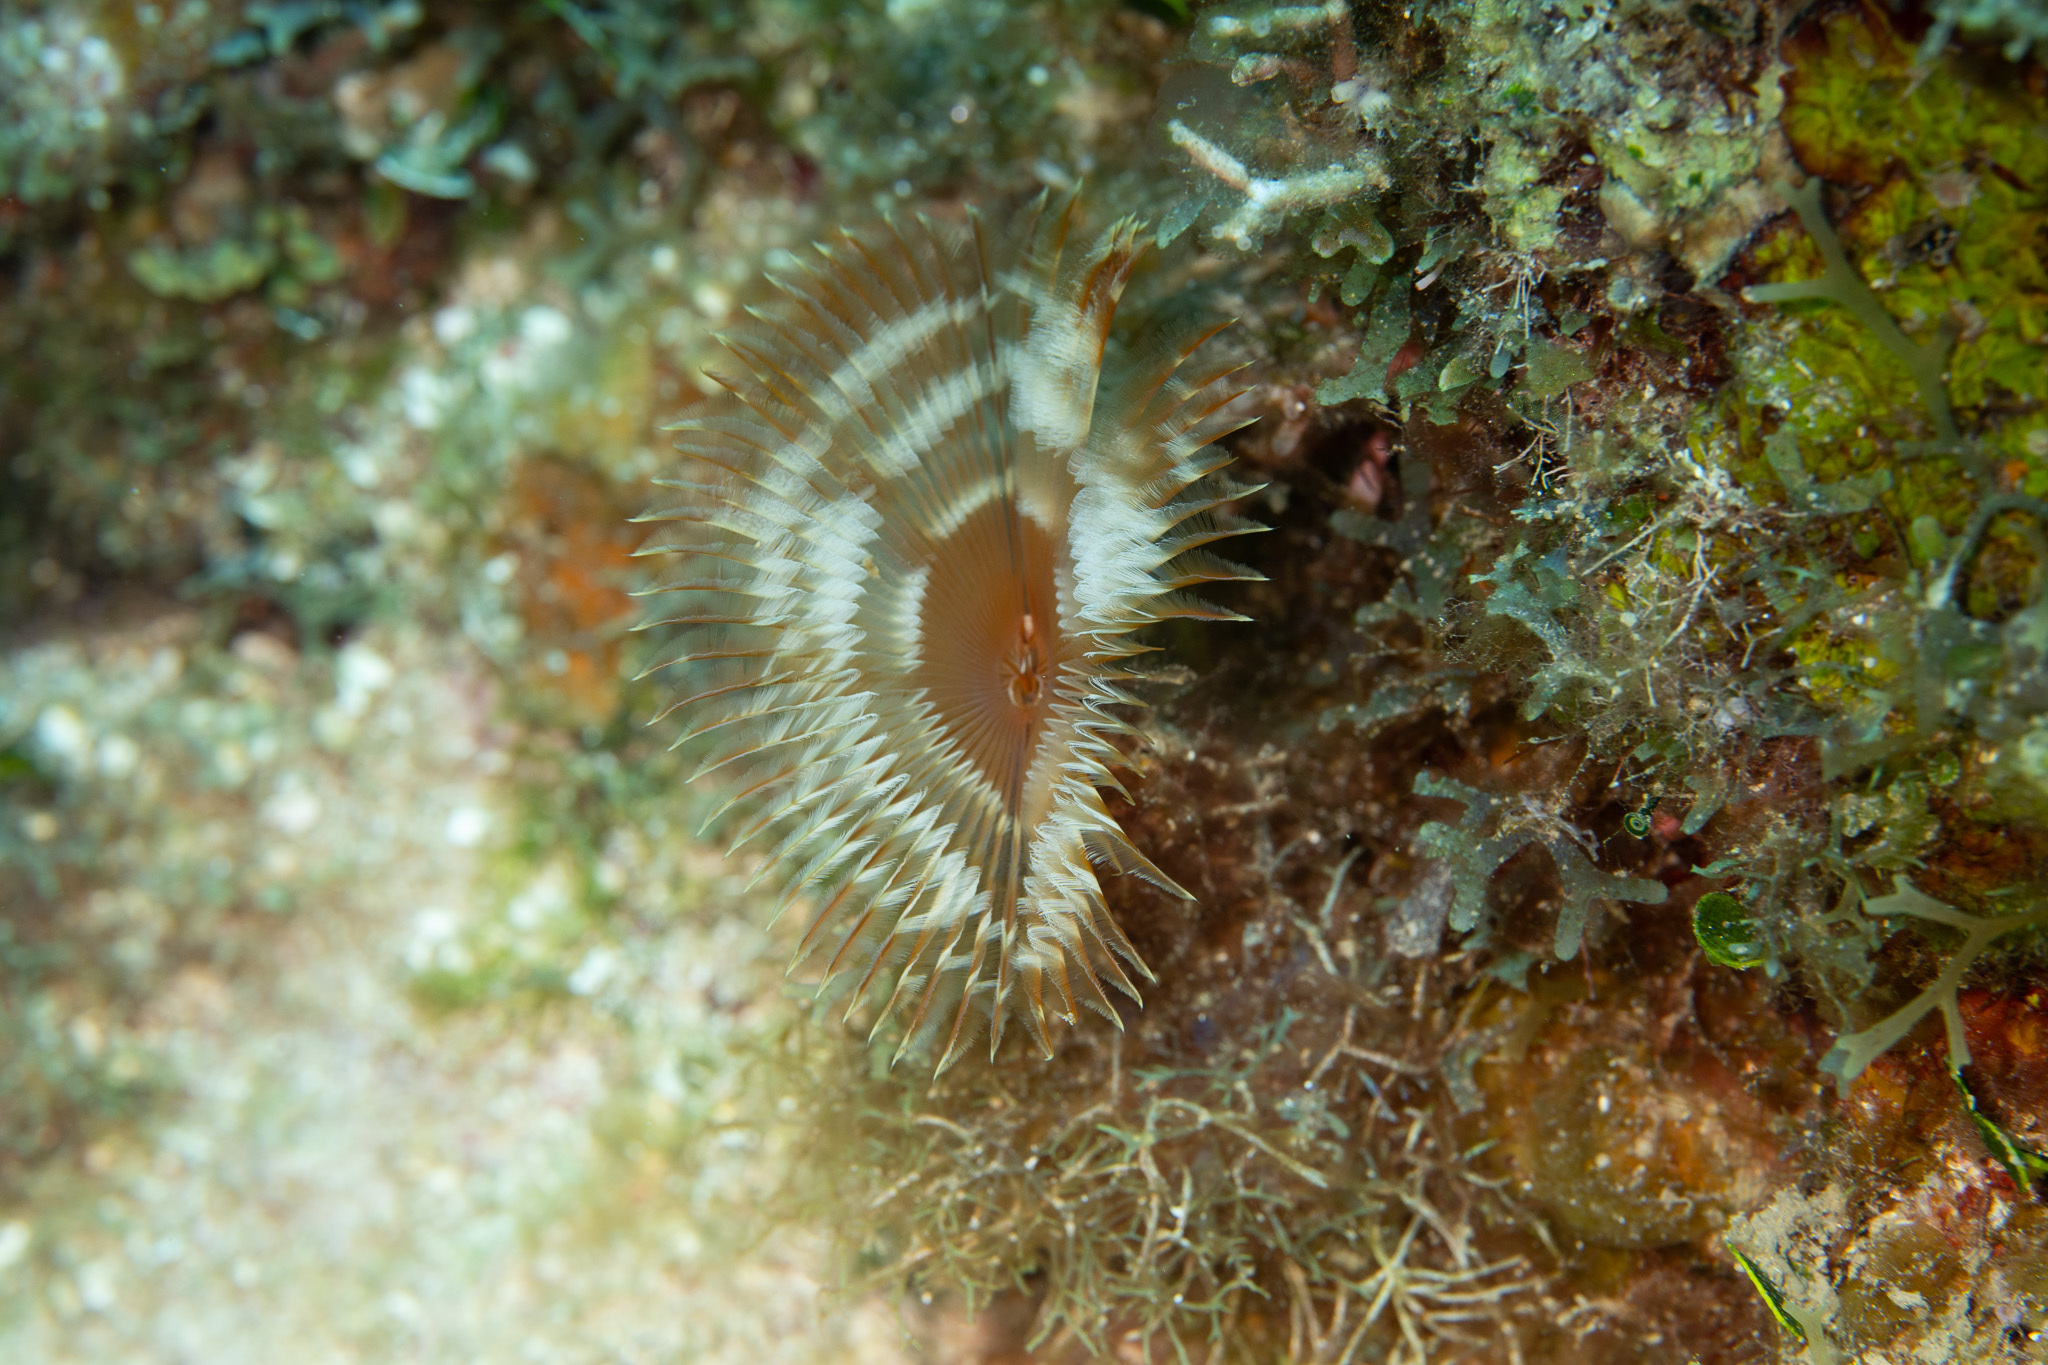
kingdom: Animalia
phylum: Annelida
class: Polychaeta
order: Sabellida
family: Sabellidae
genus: Anamobaea
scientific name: Anamobaea orstedii
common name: Split-crown feather duster
